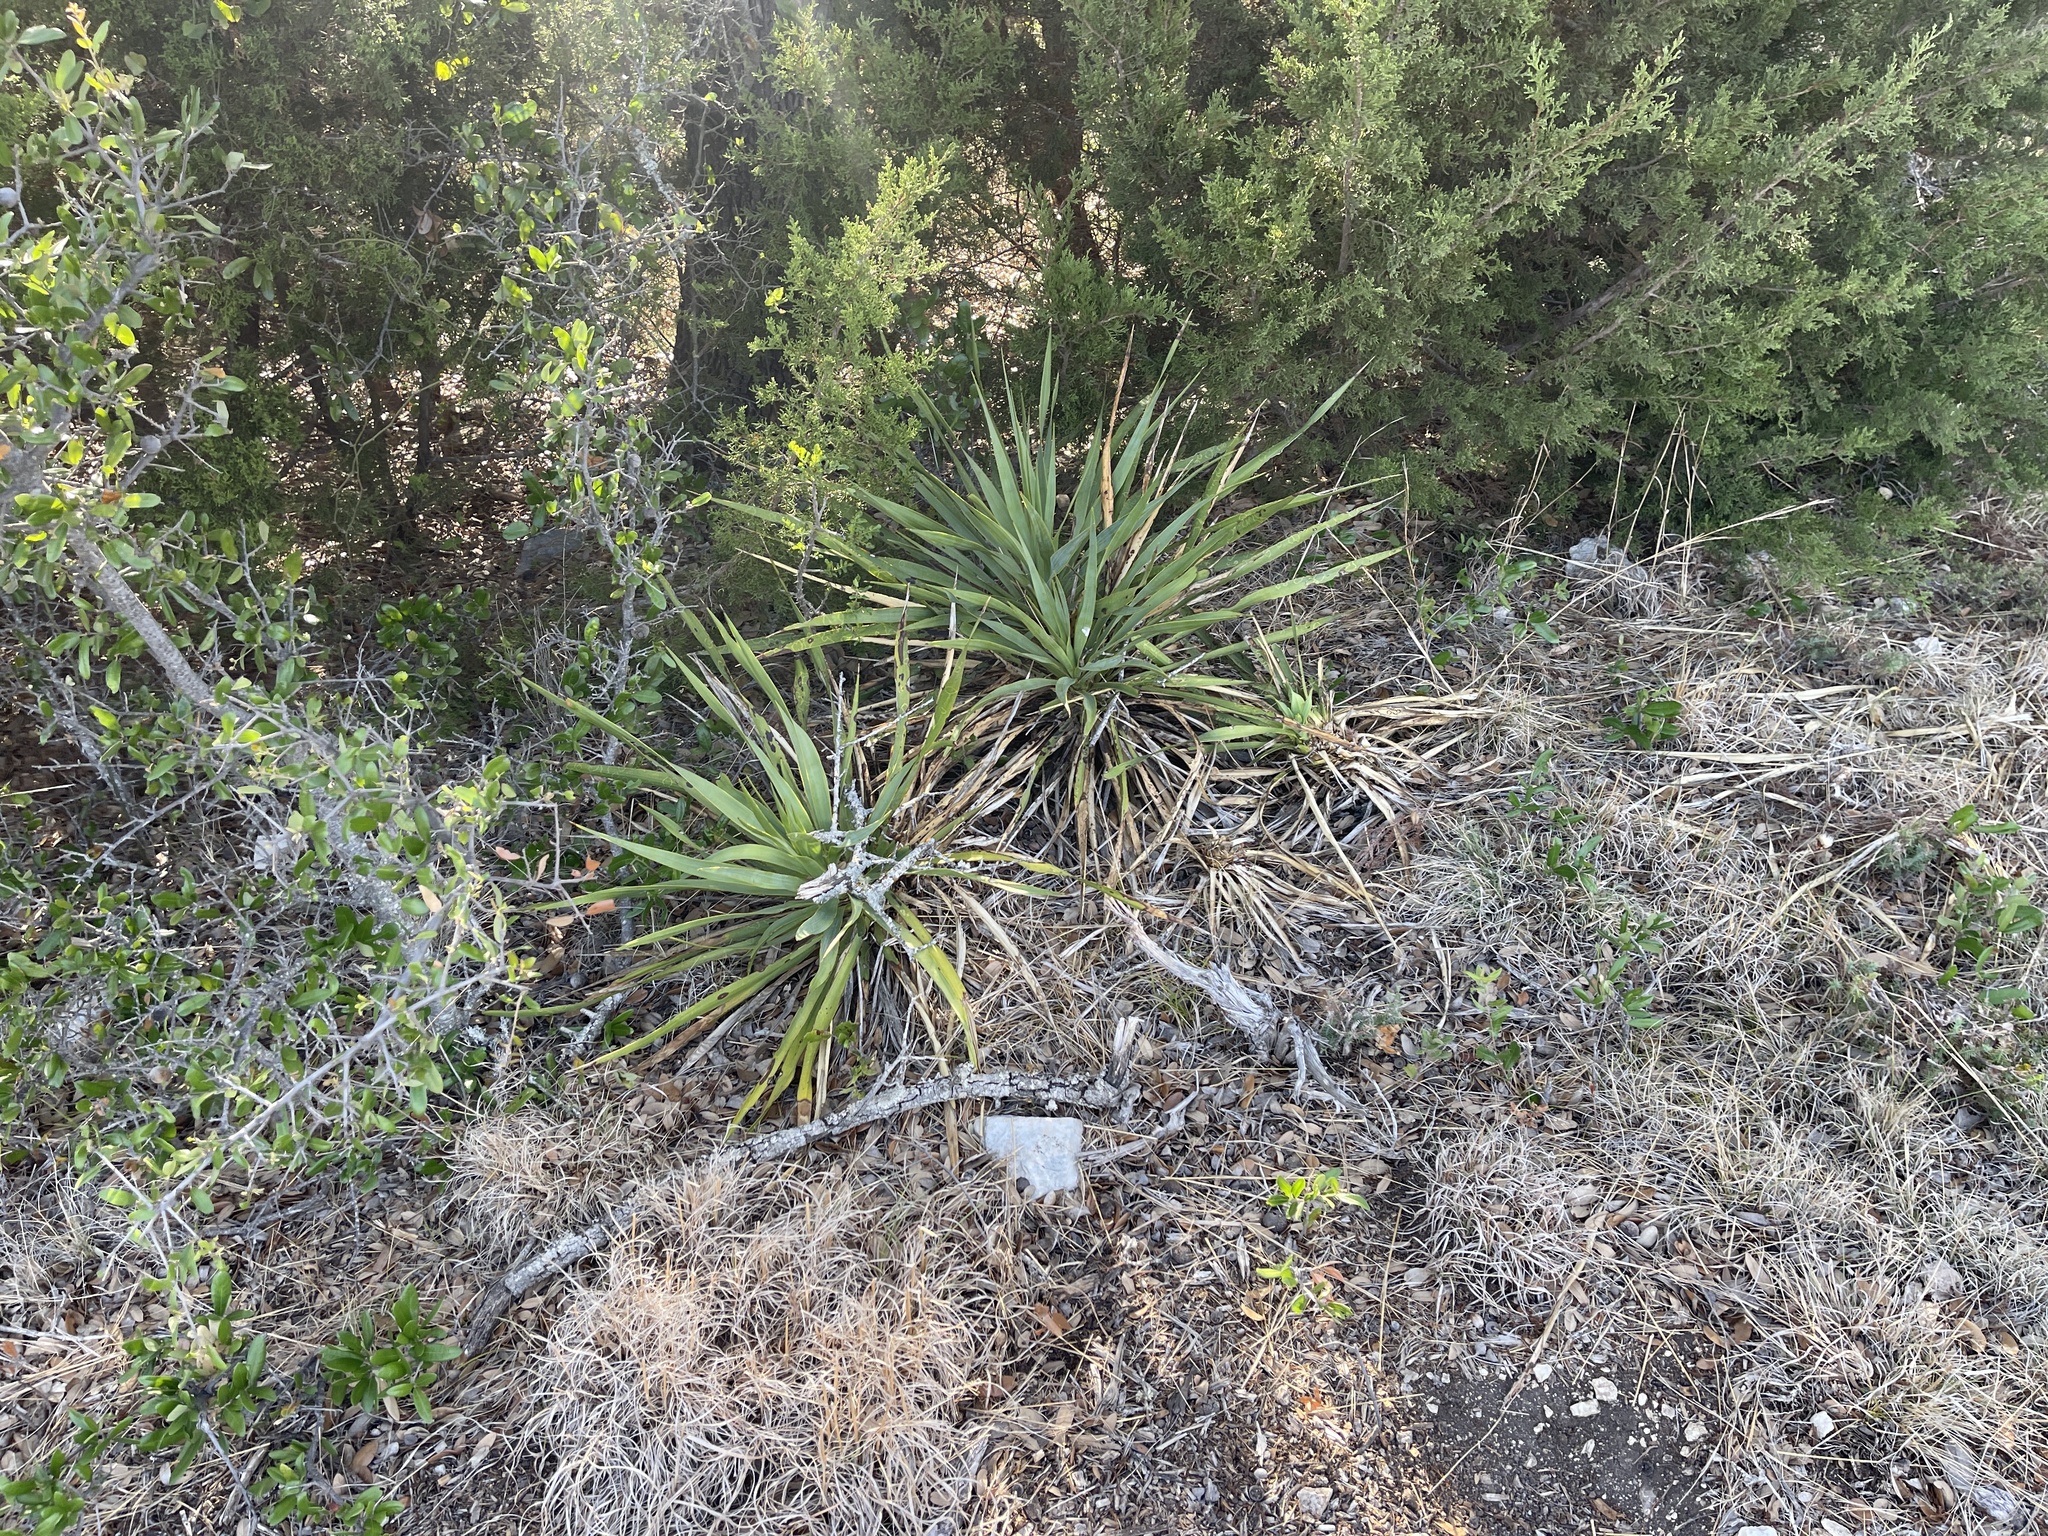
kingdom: Plantae
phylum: Tracheophyta
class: Liliopsida
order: Asparagales
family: Asparagaceae
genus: Yucca
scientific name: Yucca rupicola
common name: Twisted-leaf spanish-dagger
